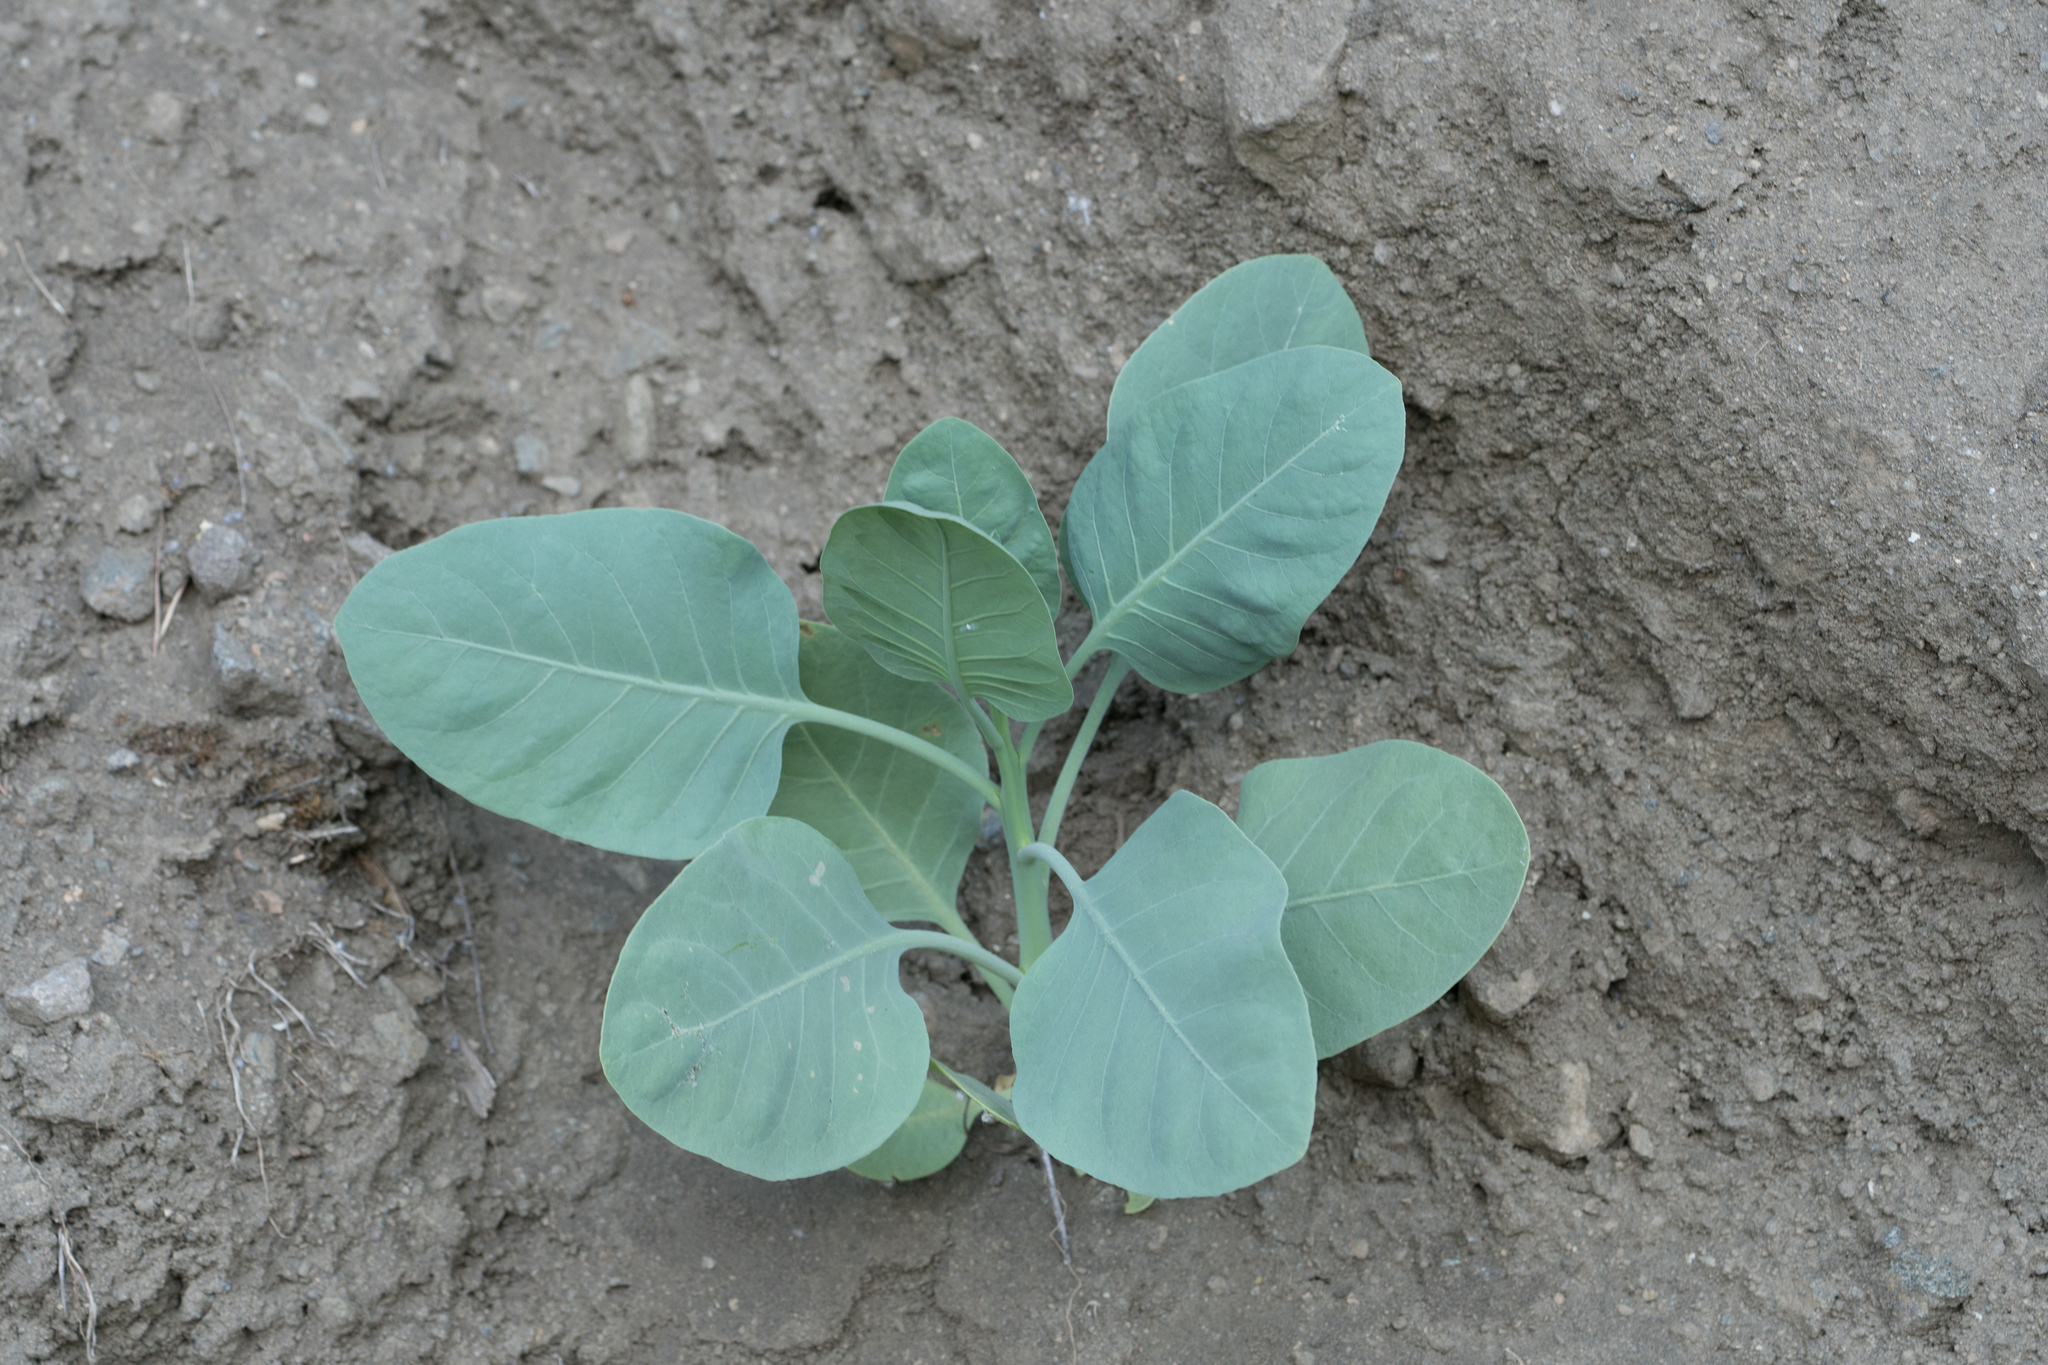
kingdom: Plantae
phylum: Tracheophyta
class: Magnoliopsida
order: Solanales
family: Solanaceae
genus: Nicotiana
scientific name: Nicotiana glauca
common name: Tree tobacco
